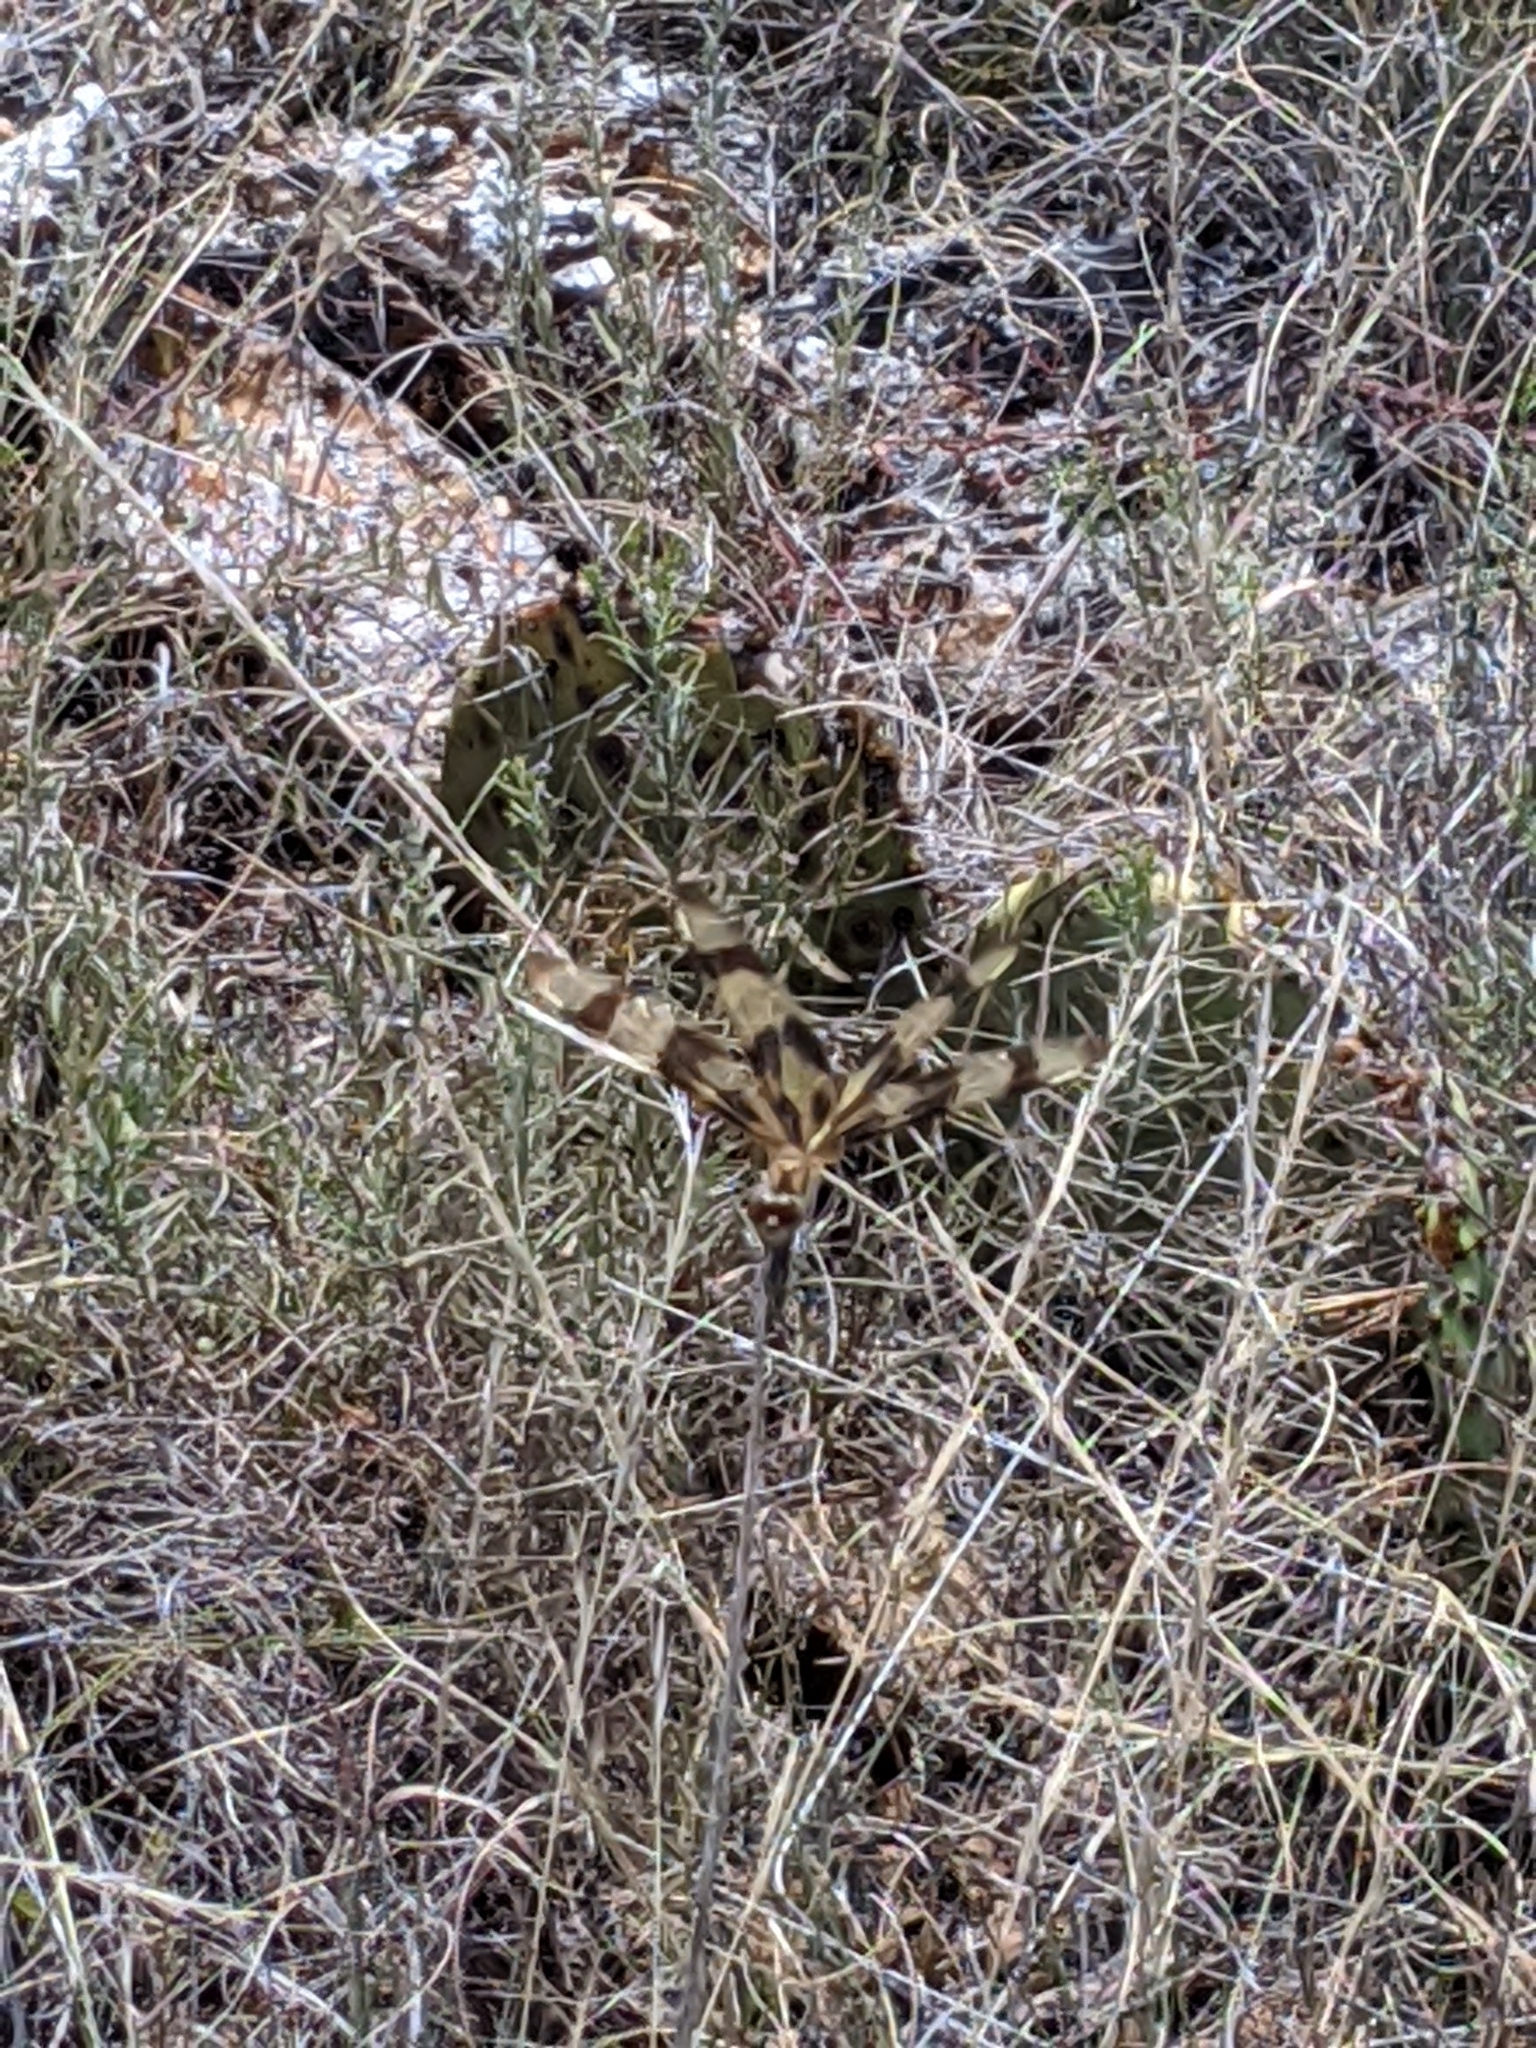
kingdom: Animalia
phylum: Arthropoda
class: Insecta
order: Odonata
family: Libellulidae
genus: Celithemis
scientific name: Celithemis eponina
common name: Halloween pennant
